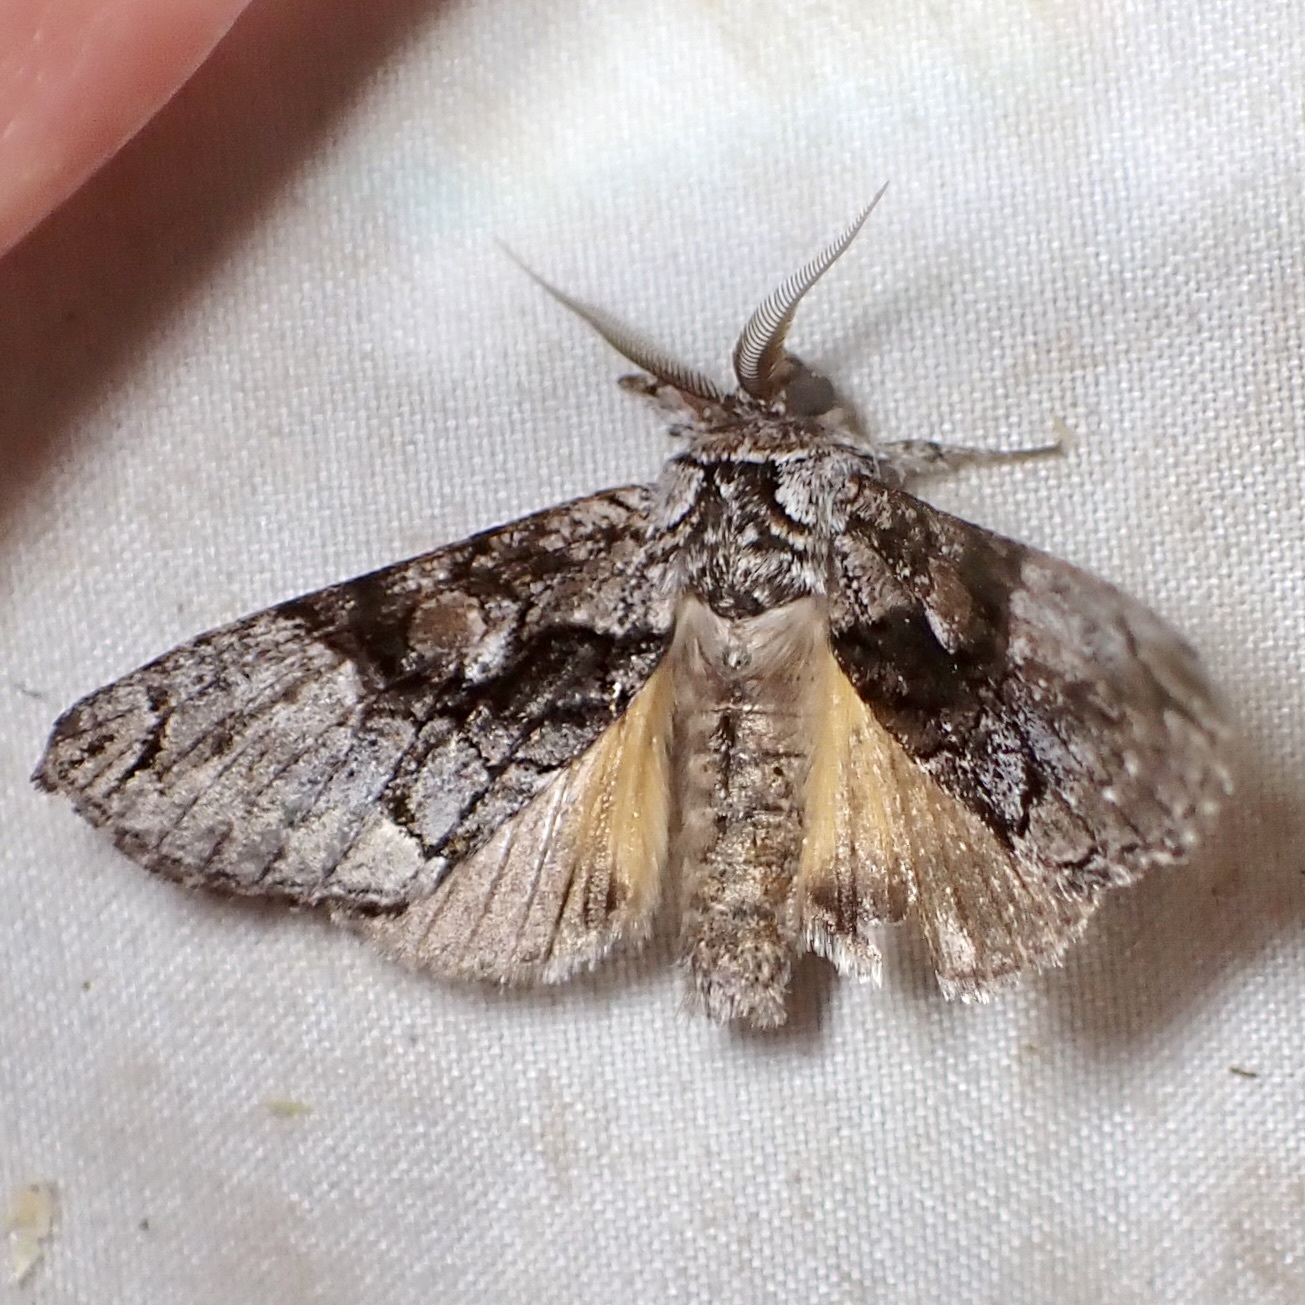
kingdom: Animalia
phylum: Arthropoda
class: Insecta
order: Lepidoptera
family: Noctuidae
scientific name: Noctuidae
